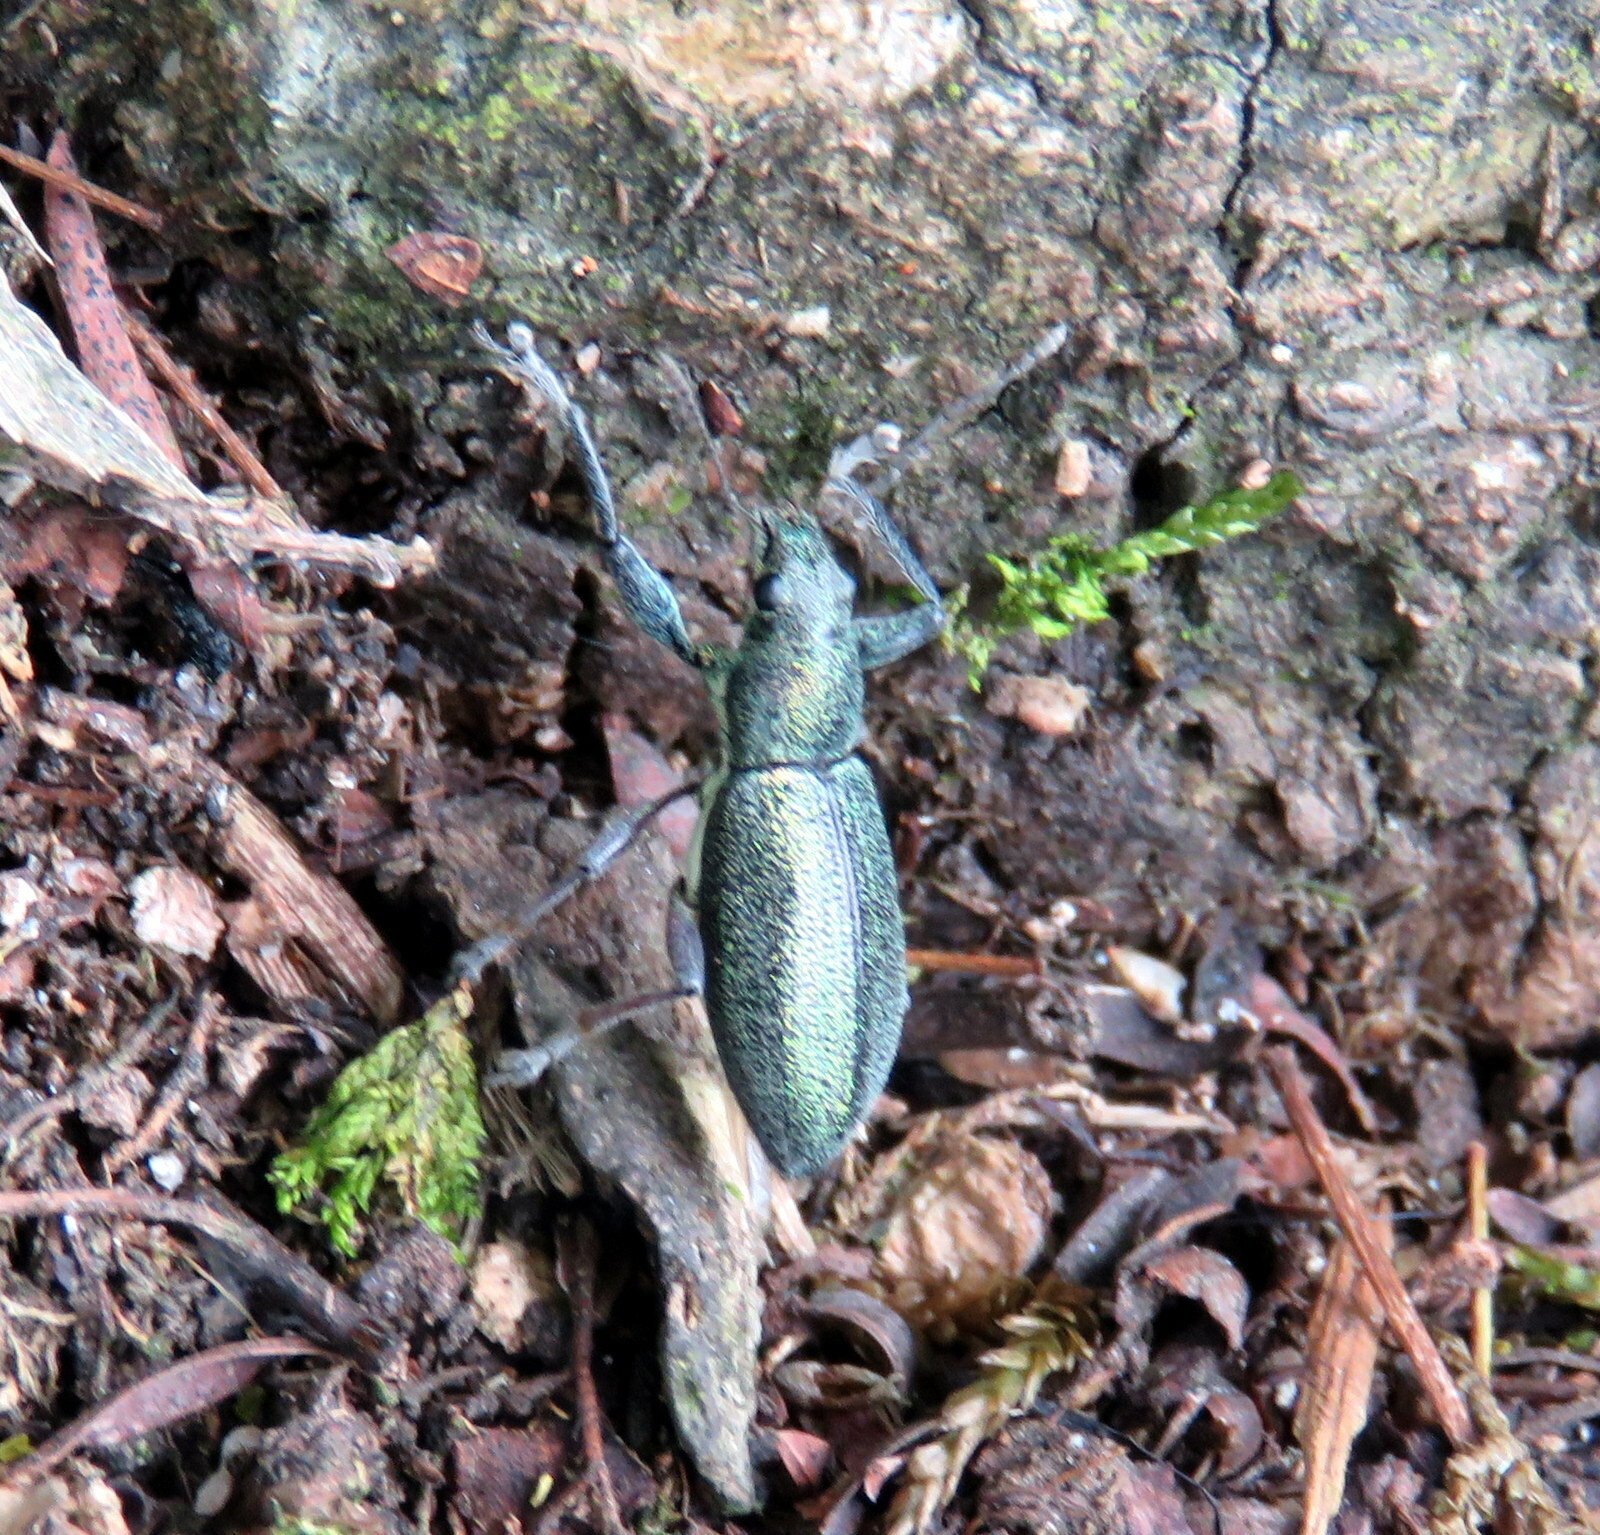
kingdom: Animalia
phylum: Arthropoda
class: Insecta
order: Coleoptera
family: Curculionidae
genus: Naupactus
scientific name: Naupactus auricinctus
